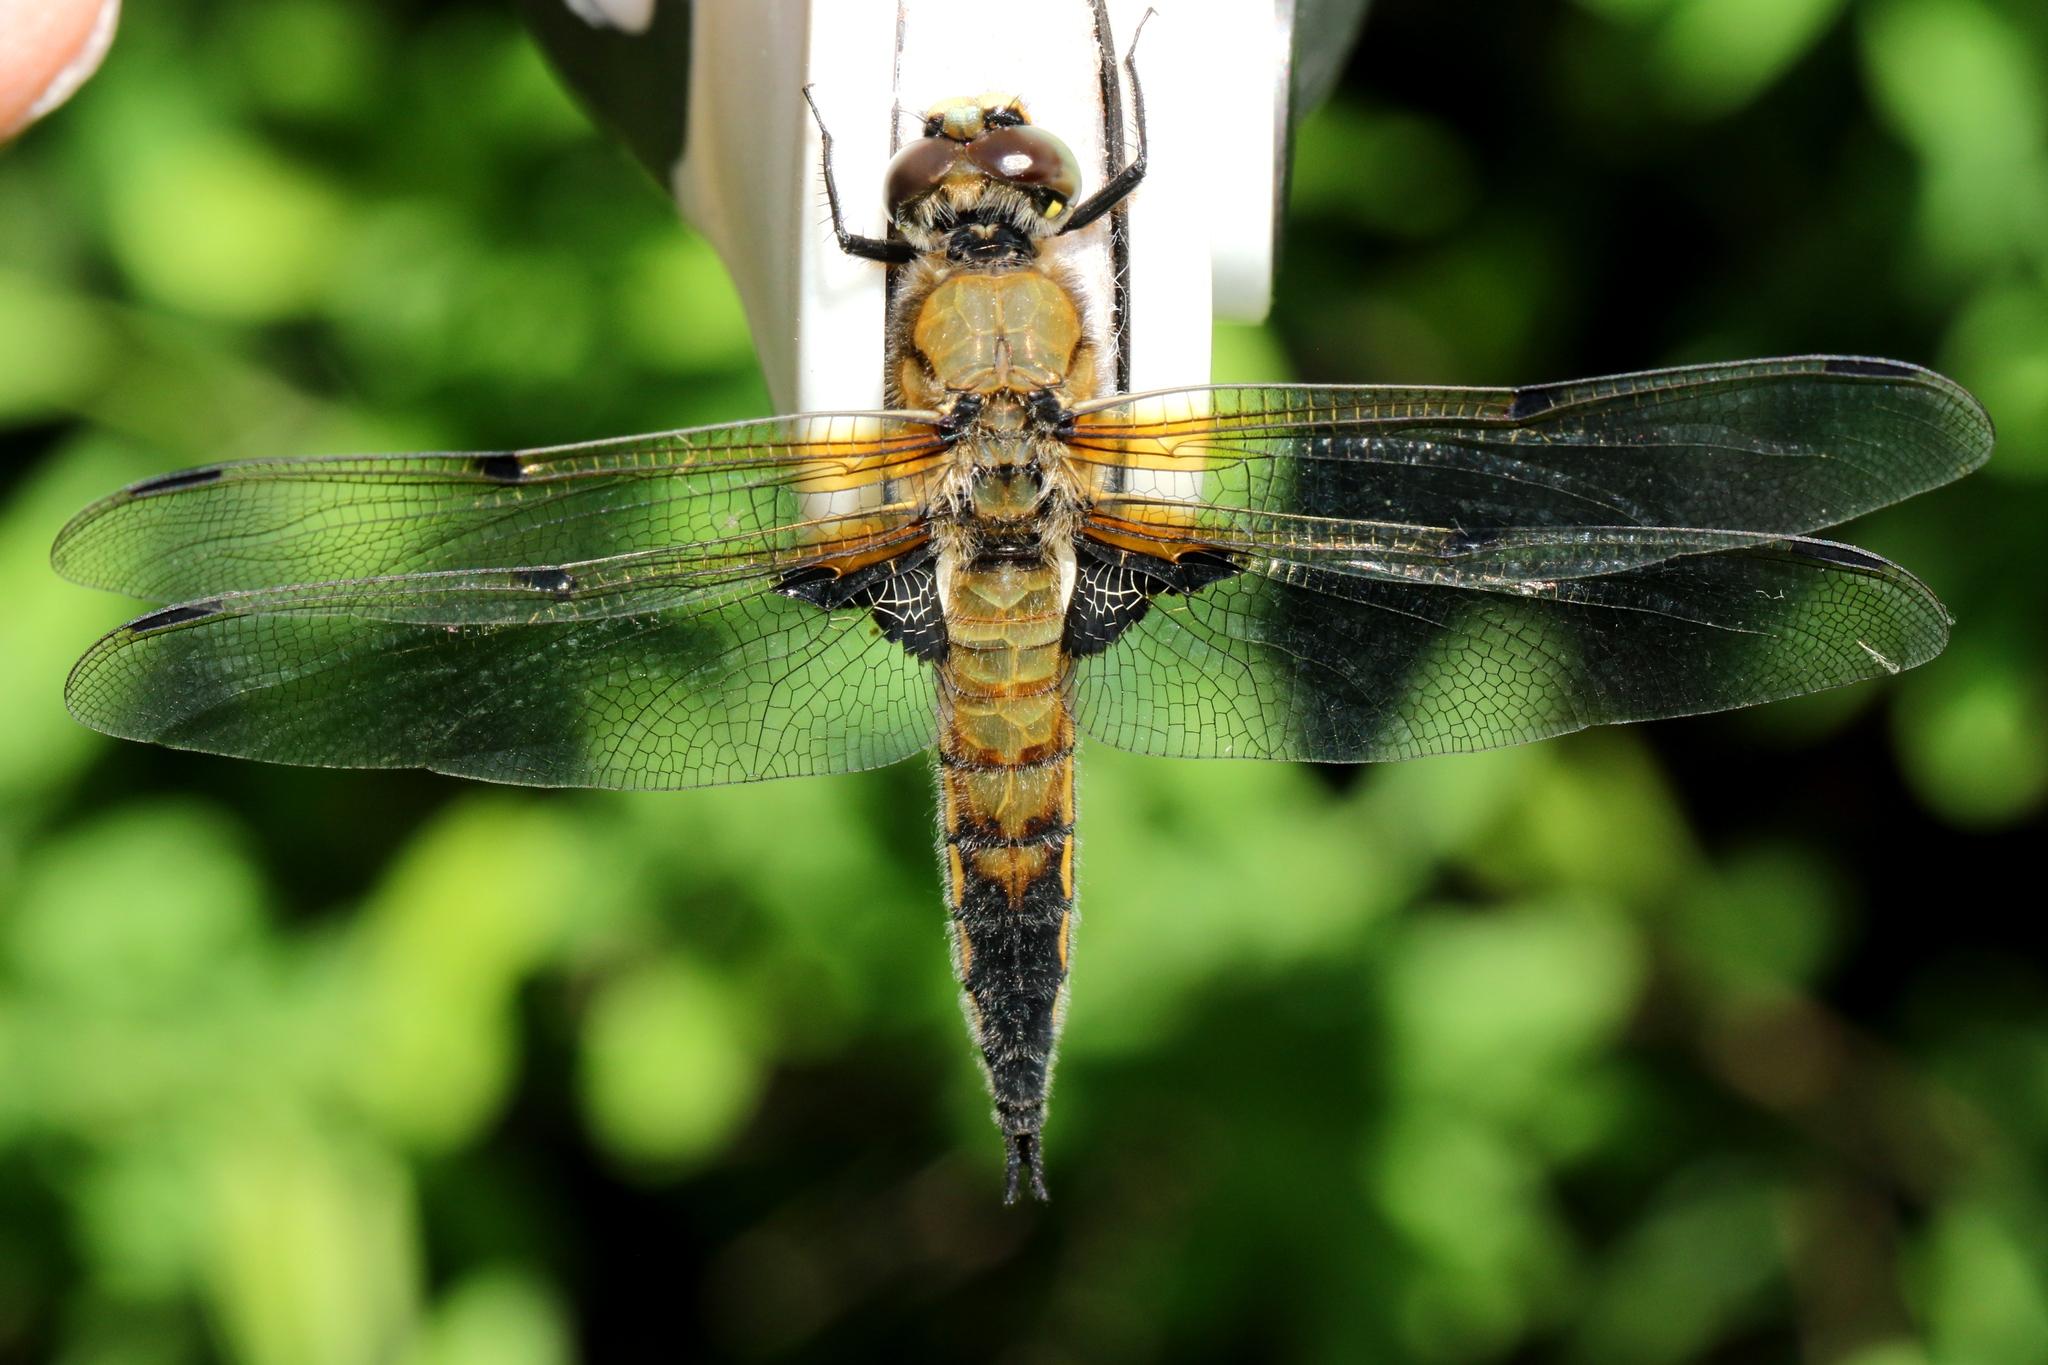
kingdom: Animalia
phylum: Arthropoda
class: Insecta
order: Odonata
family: Libellulidae
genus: Libellula
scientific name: Libellula quadrimaculata
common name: Four-spotted chaser
